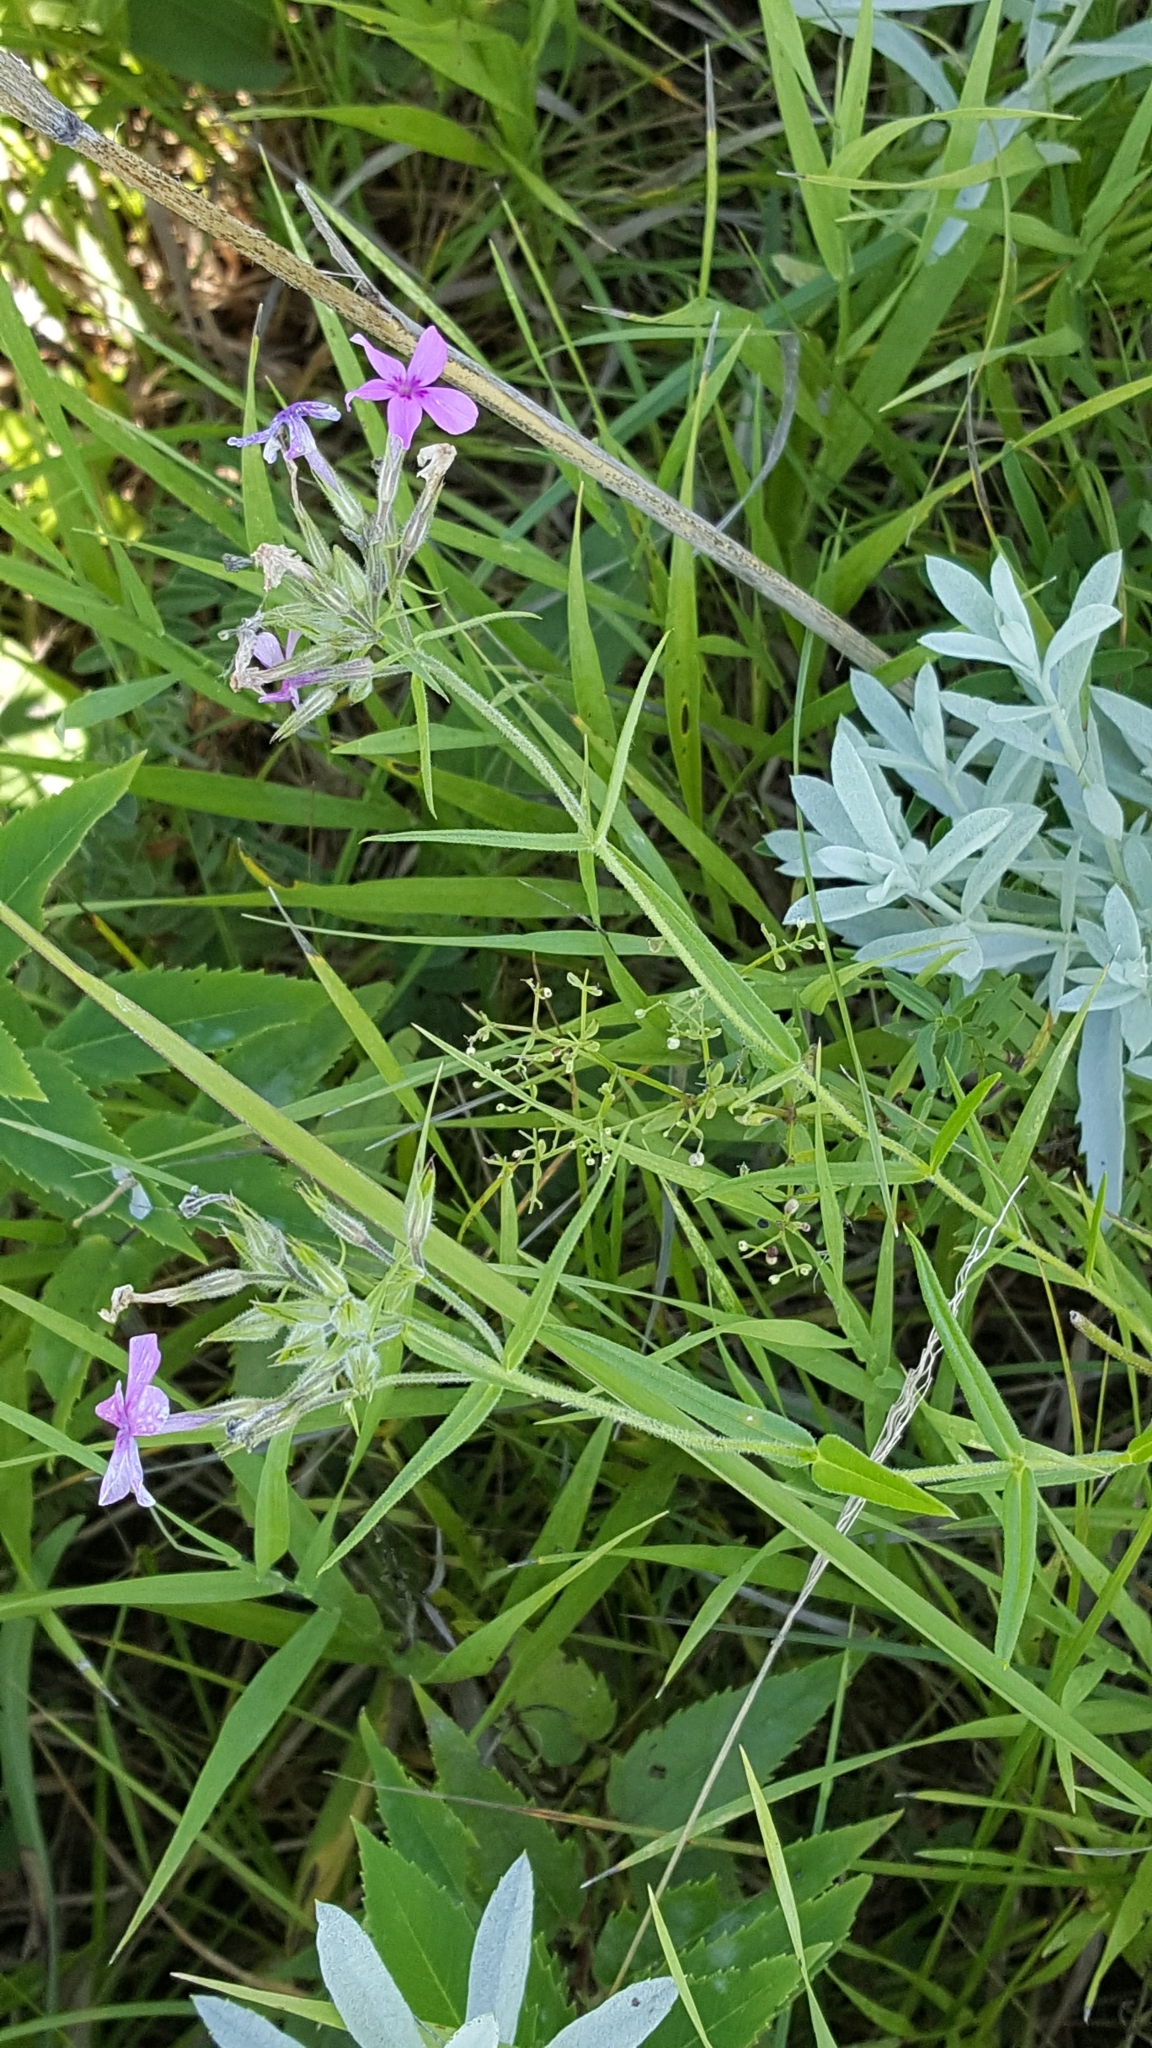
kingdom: Plantae
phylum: Tracheophyta
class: Magnoliopsida
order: Ericales
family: Polemoniaceae
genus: Phlox
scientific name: Phlox pilosa
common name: Prairie phlox
